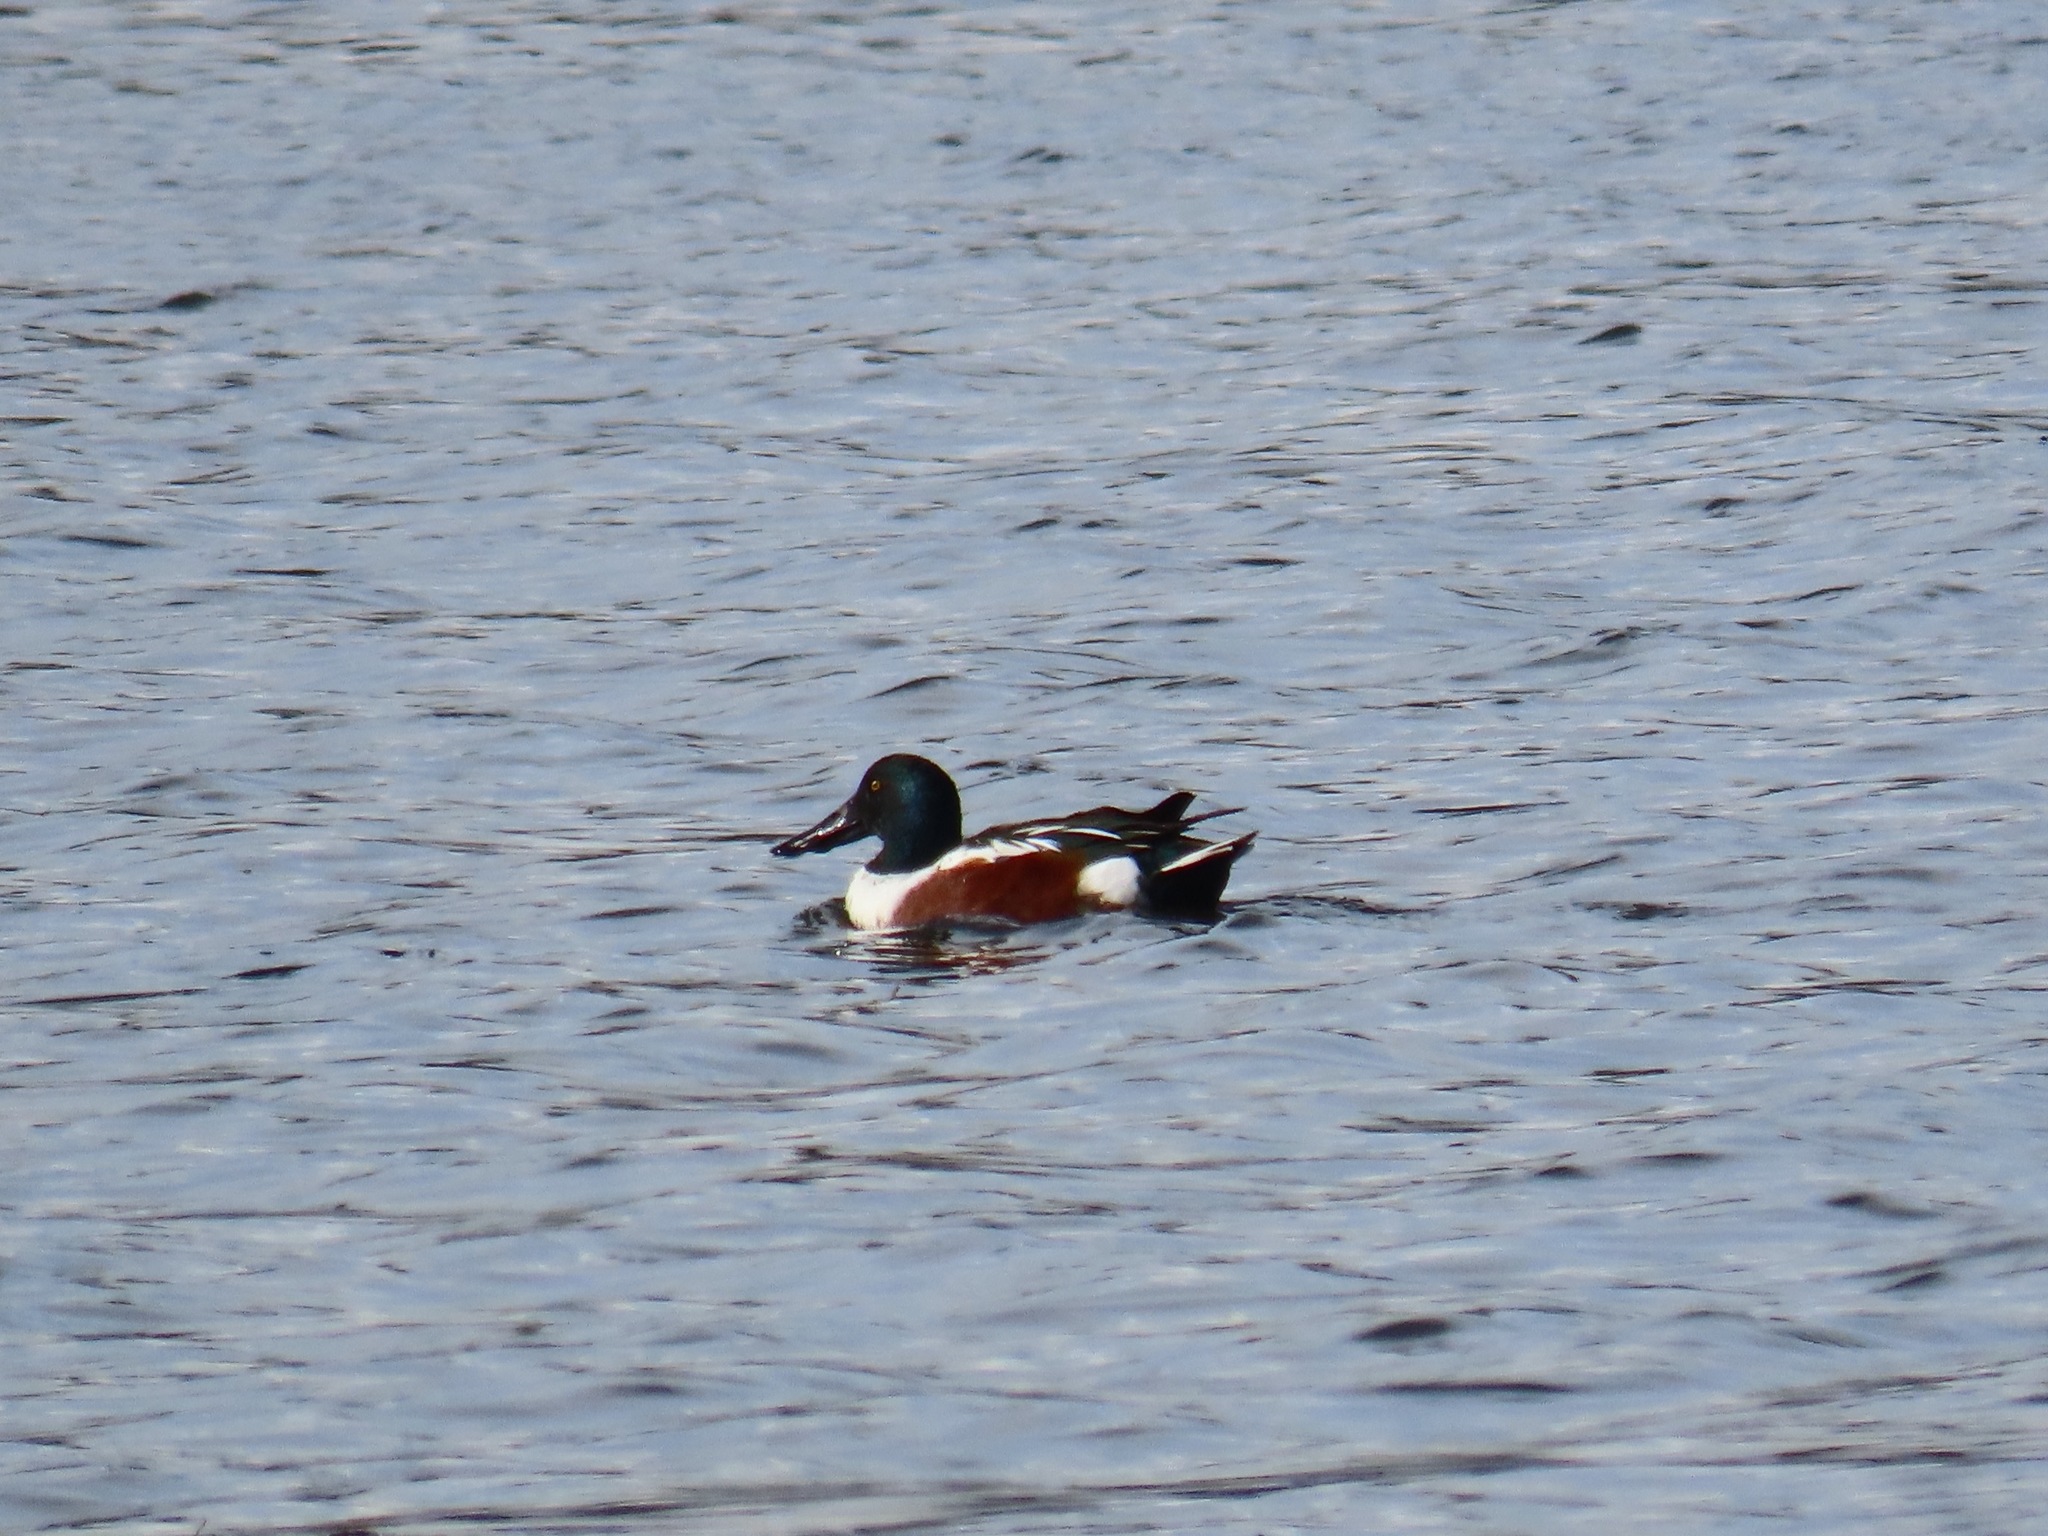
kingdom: Animalia
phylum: Chordata
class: Aves
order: Anseriformes
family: Anatidae
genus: Spatula
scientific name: Spatula clypeata
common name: Northern shoveler
